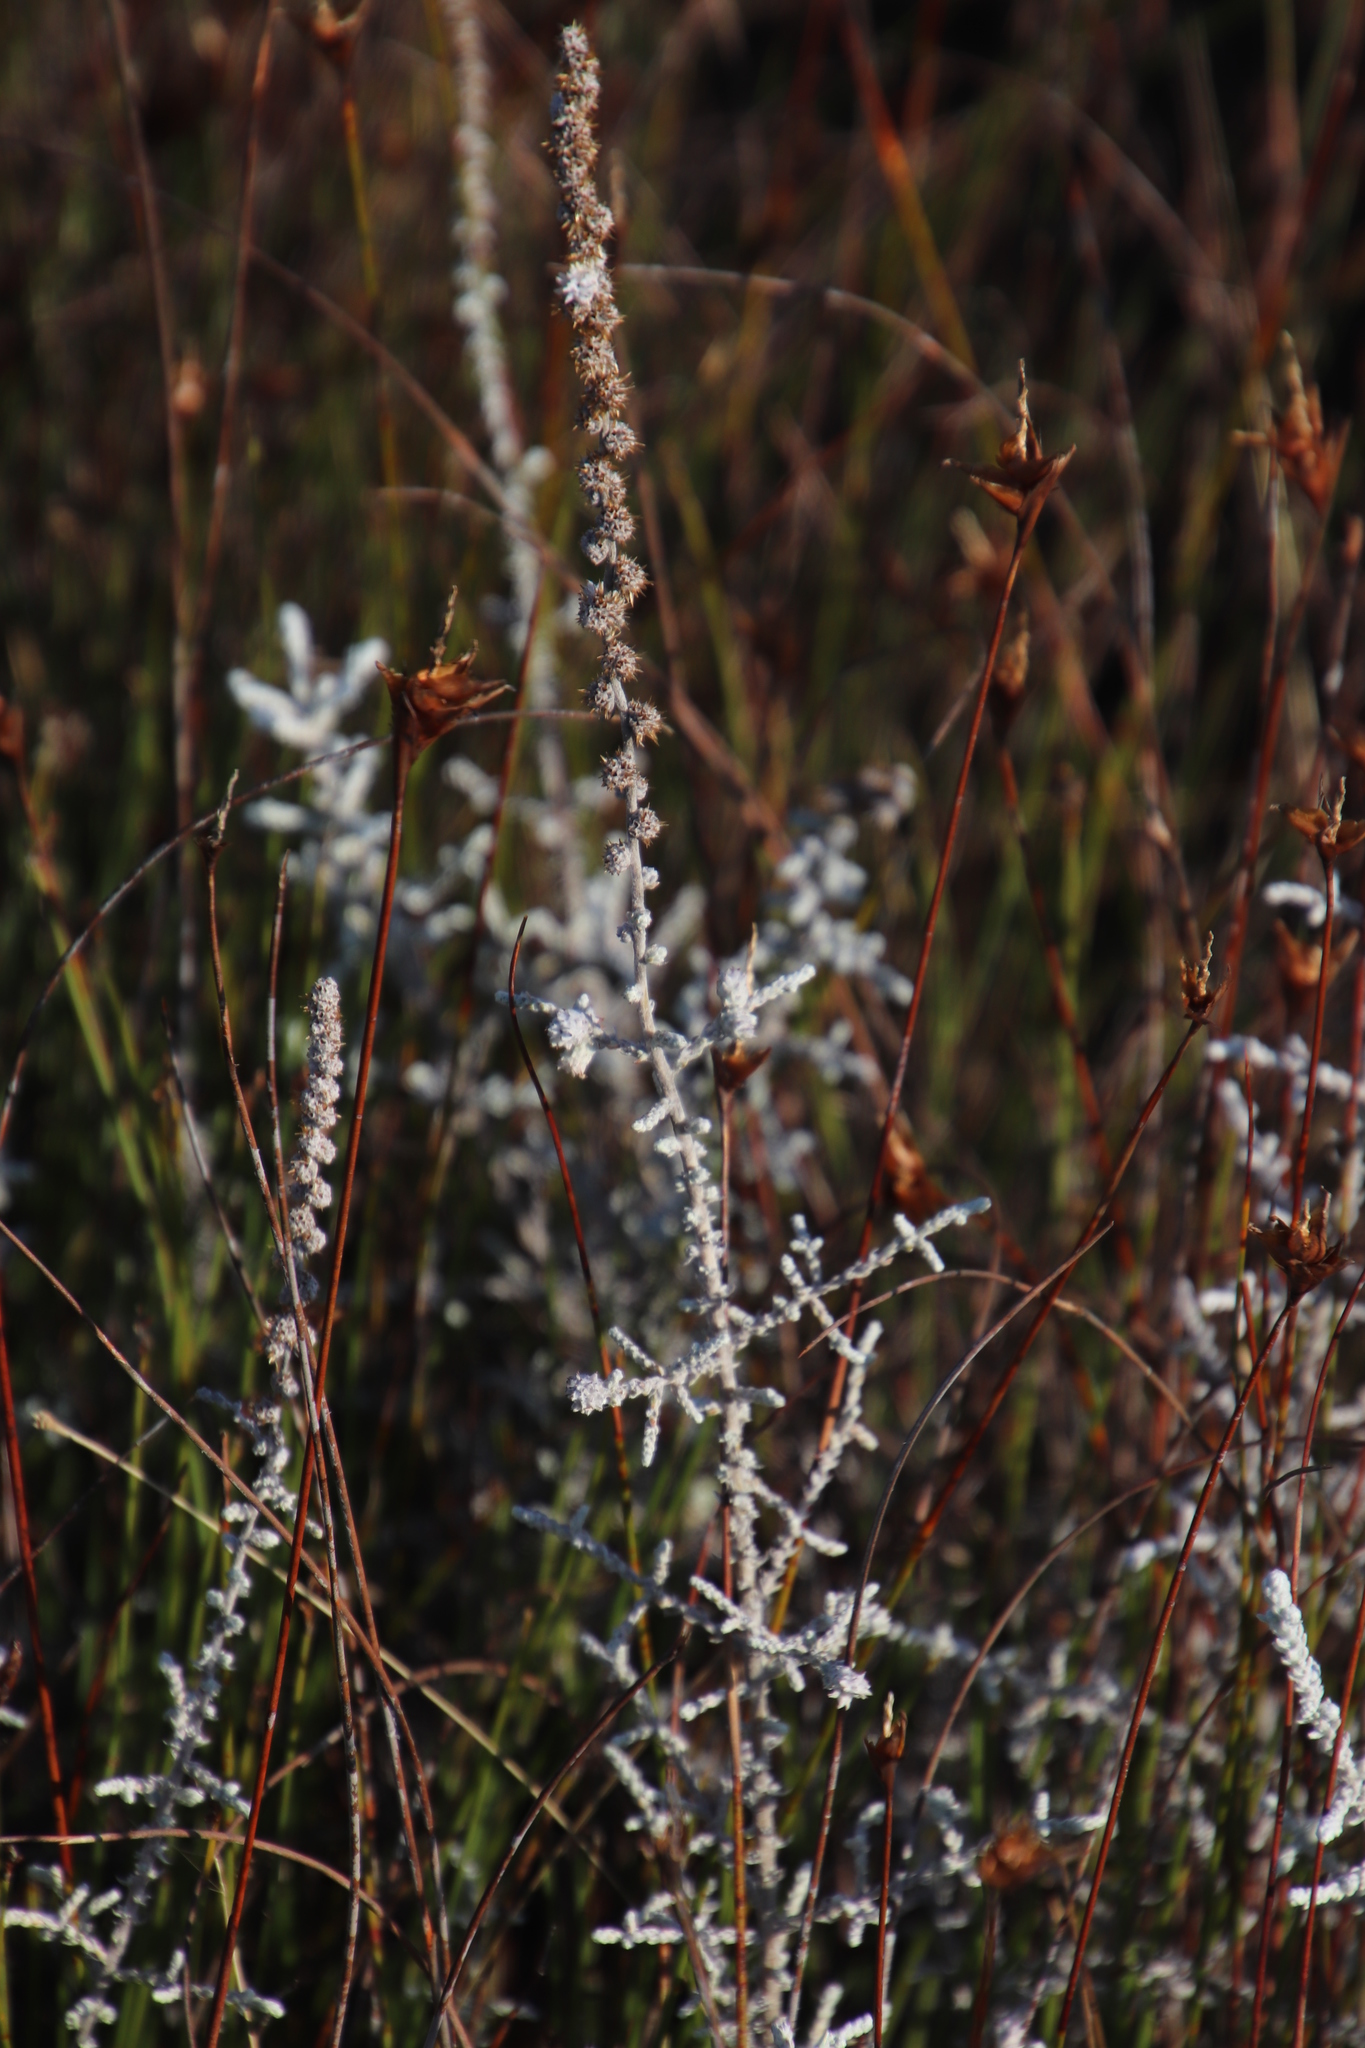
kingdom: Plantae
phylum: Tracheophyta
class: Magnoliopsida
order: Asterales
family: Asteraceae
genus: Seriphium
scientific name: Seriphium plumosum
